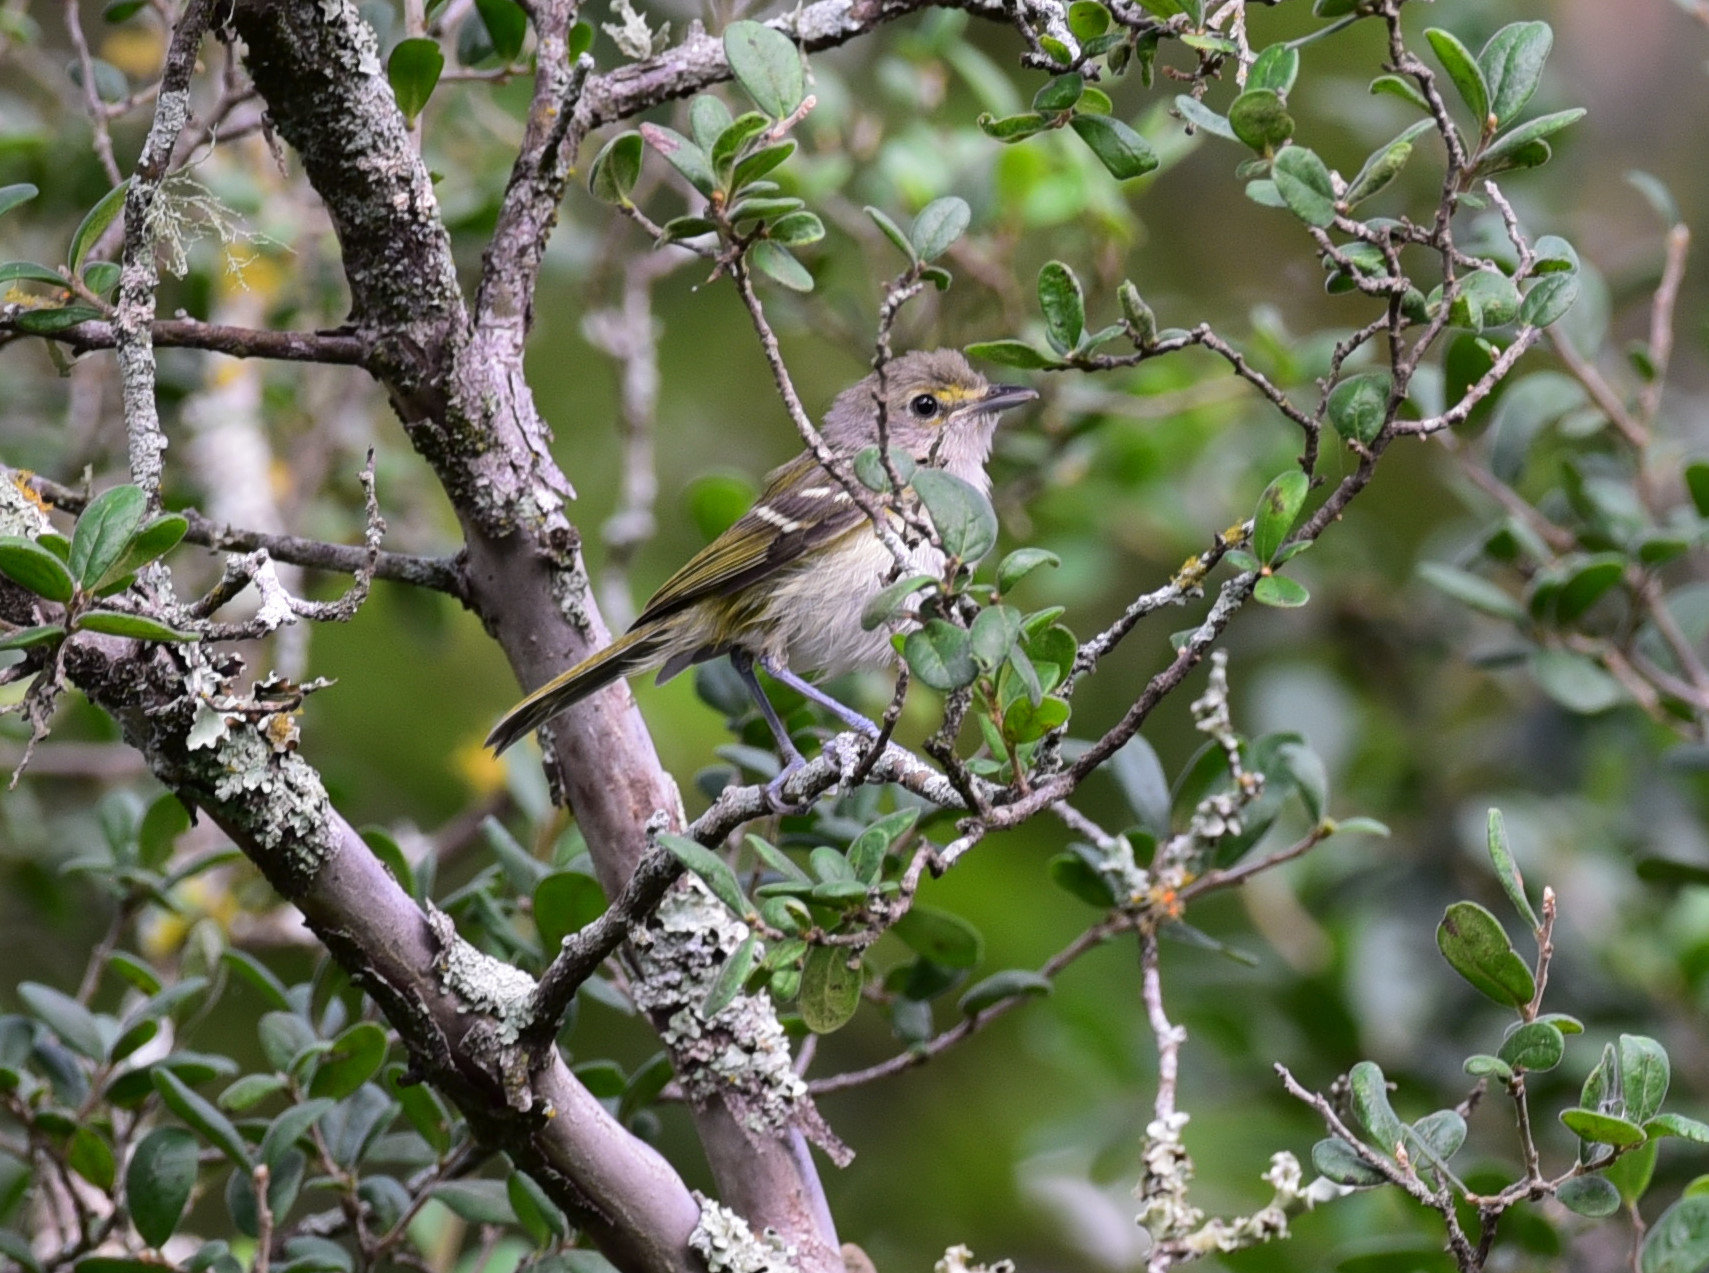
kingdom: Animalia
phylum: Chordata
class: Aves
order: Passeriformes
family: Vireonidae
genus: Vireo
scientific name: Vireo griseus
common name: White-eyed vireo
